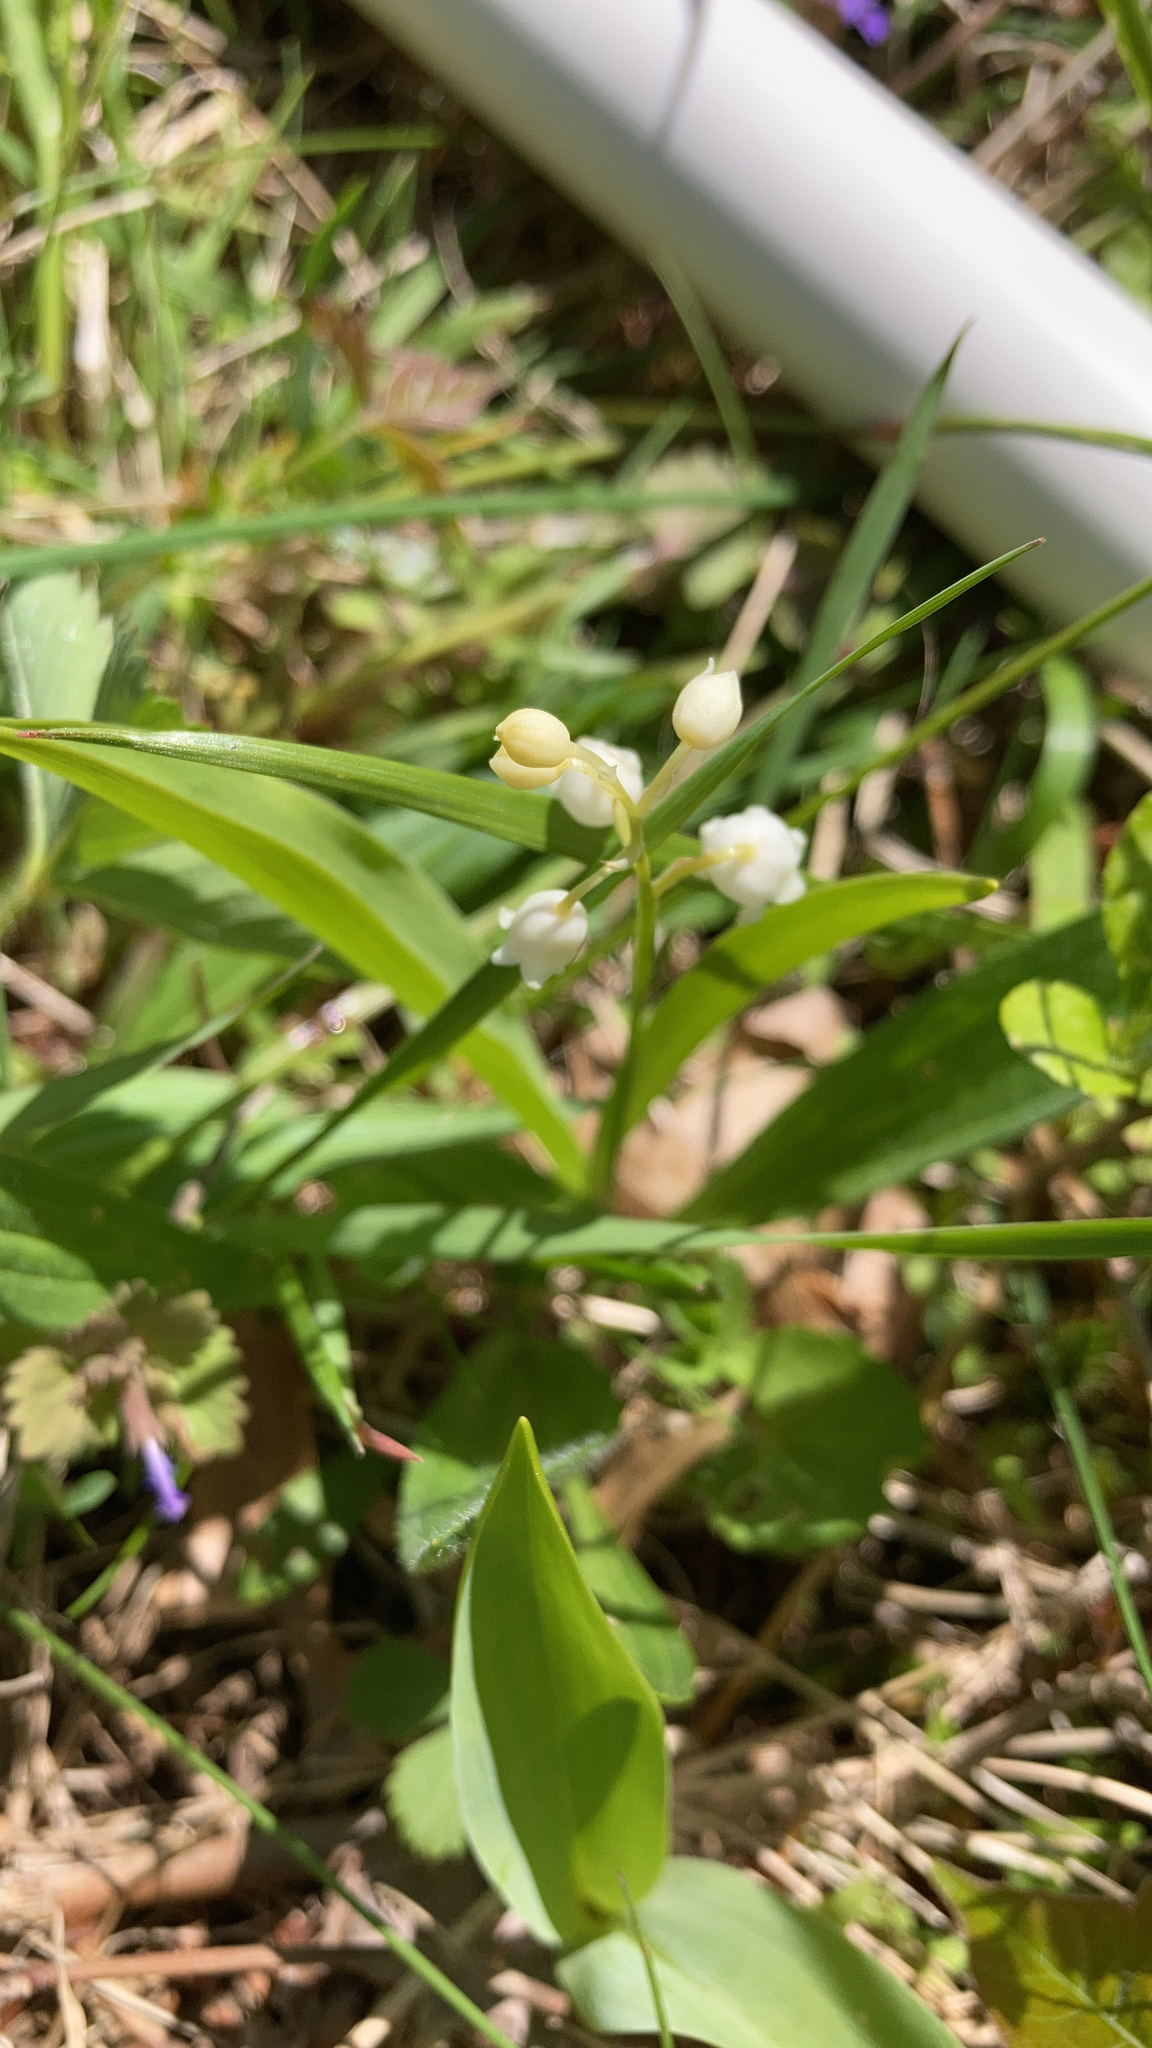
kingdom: Plantae
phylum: Tracheophyta
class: Liliopsida
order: Asparagales
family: Asparagaceae
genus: Convallaria
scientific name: Convallaria majalis
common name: Lily-of-the-valley
